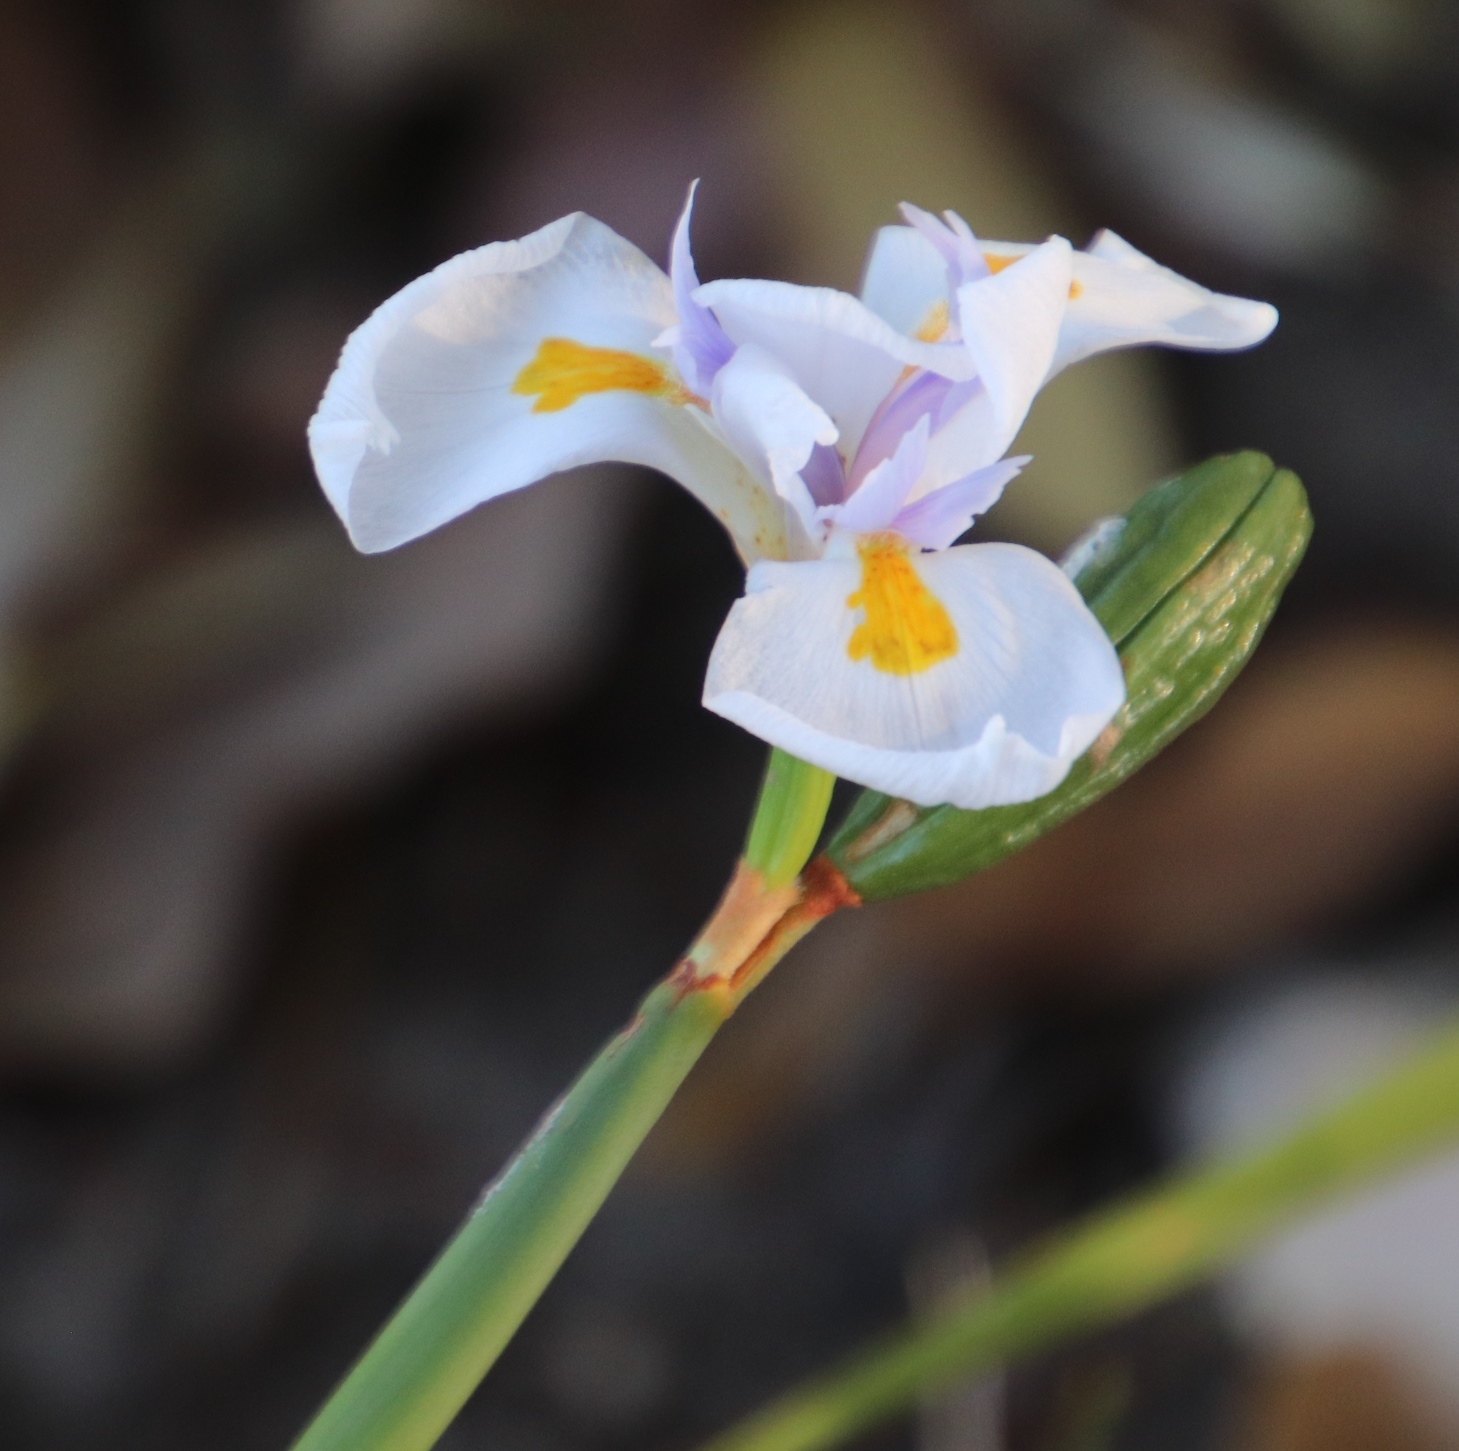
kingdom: Plantae
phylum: Tracheophyta
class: Liliopsida
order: Asparagales
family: Iridaceae
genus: Dietes
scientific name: Dietes grandiflora
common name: Wild iris
